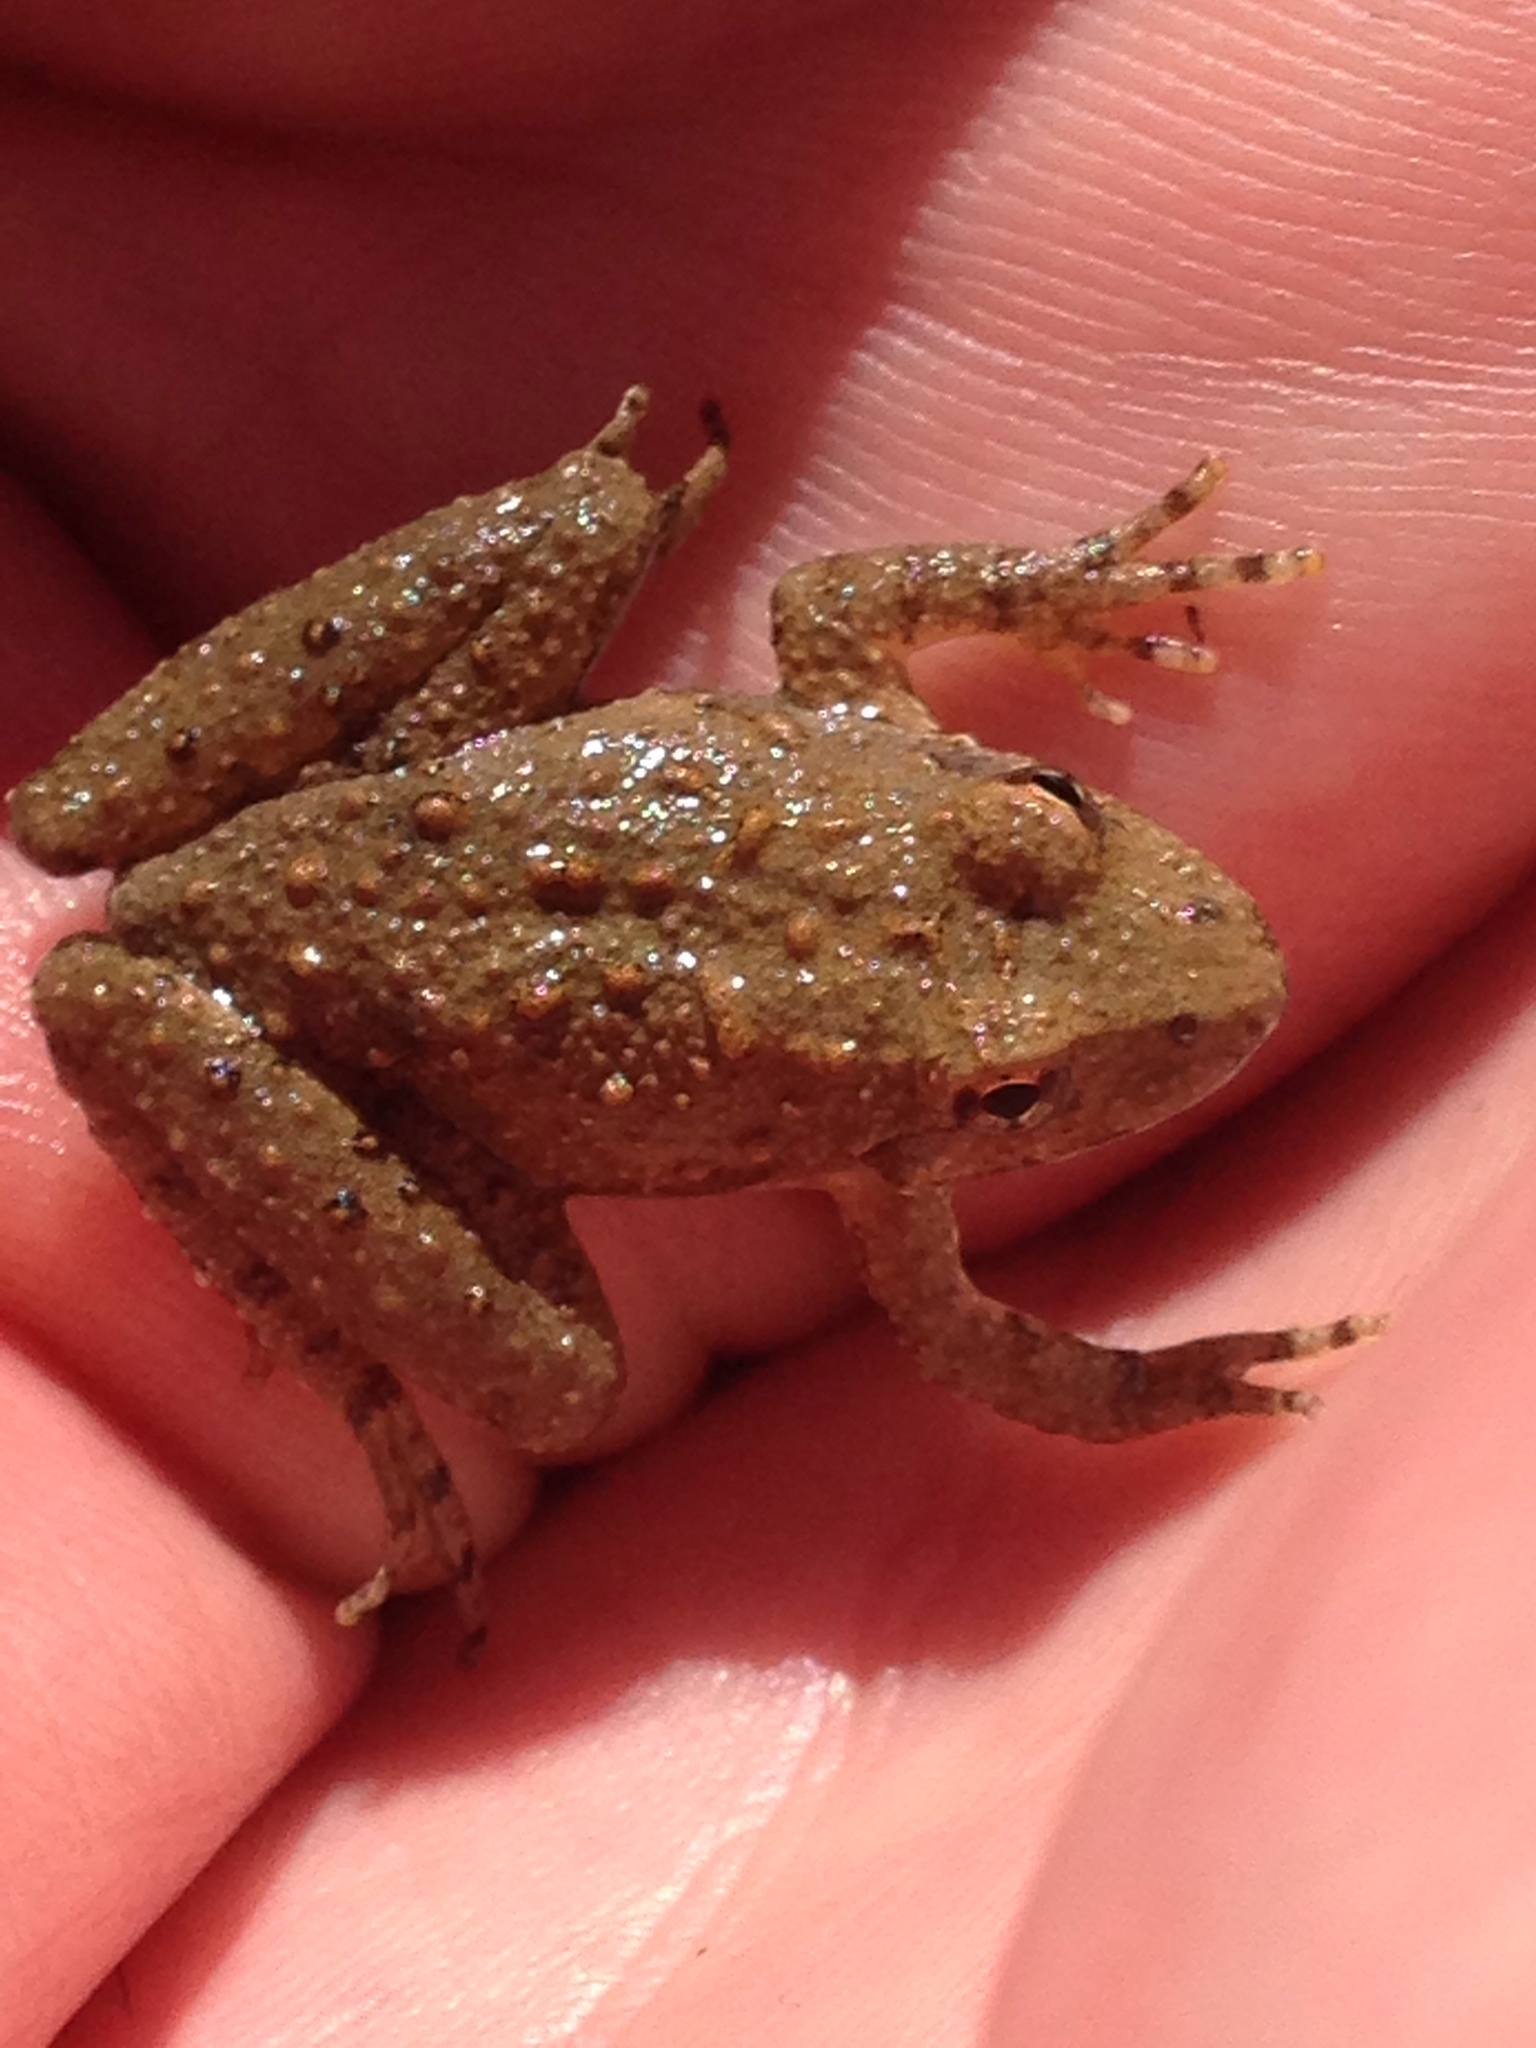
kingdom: Animalia
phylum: Chordata
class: Amphibia
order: Anura
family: Hylidae
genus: Acris
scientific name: Acris blanchardi
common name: Blanchard's cricket frog
